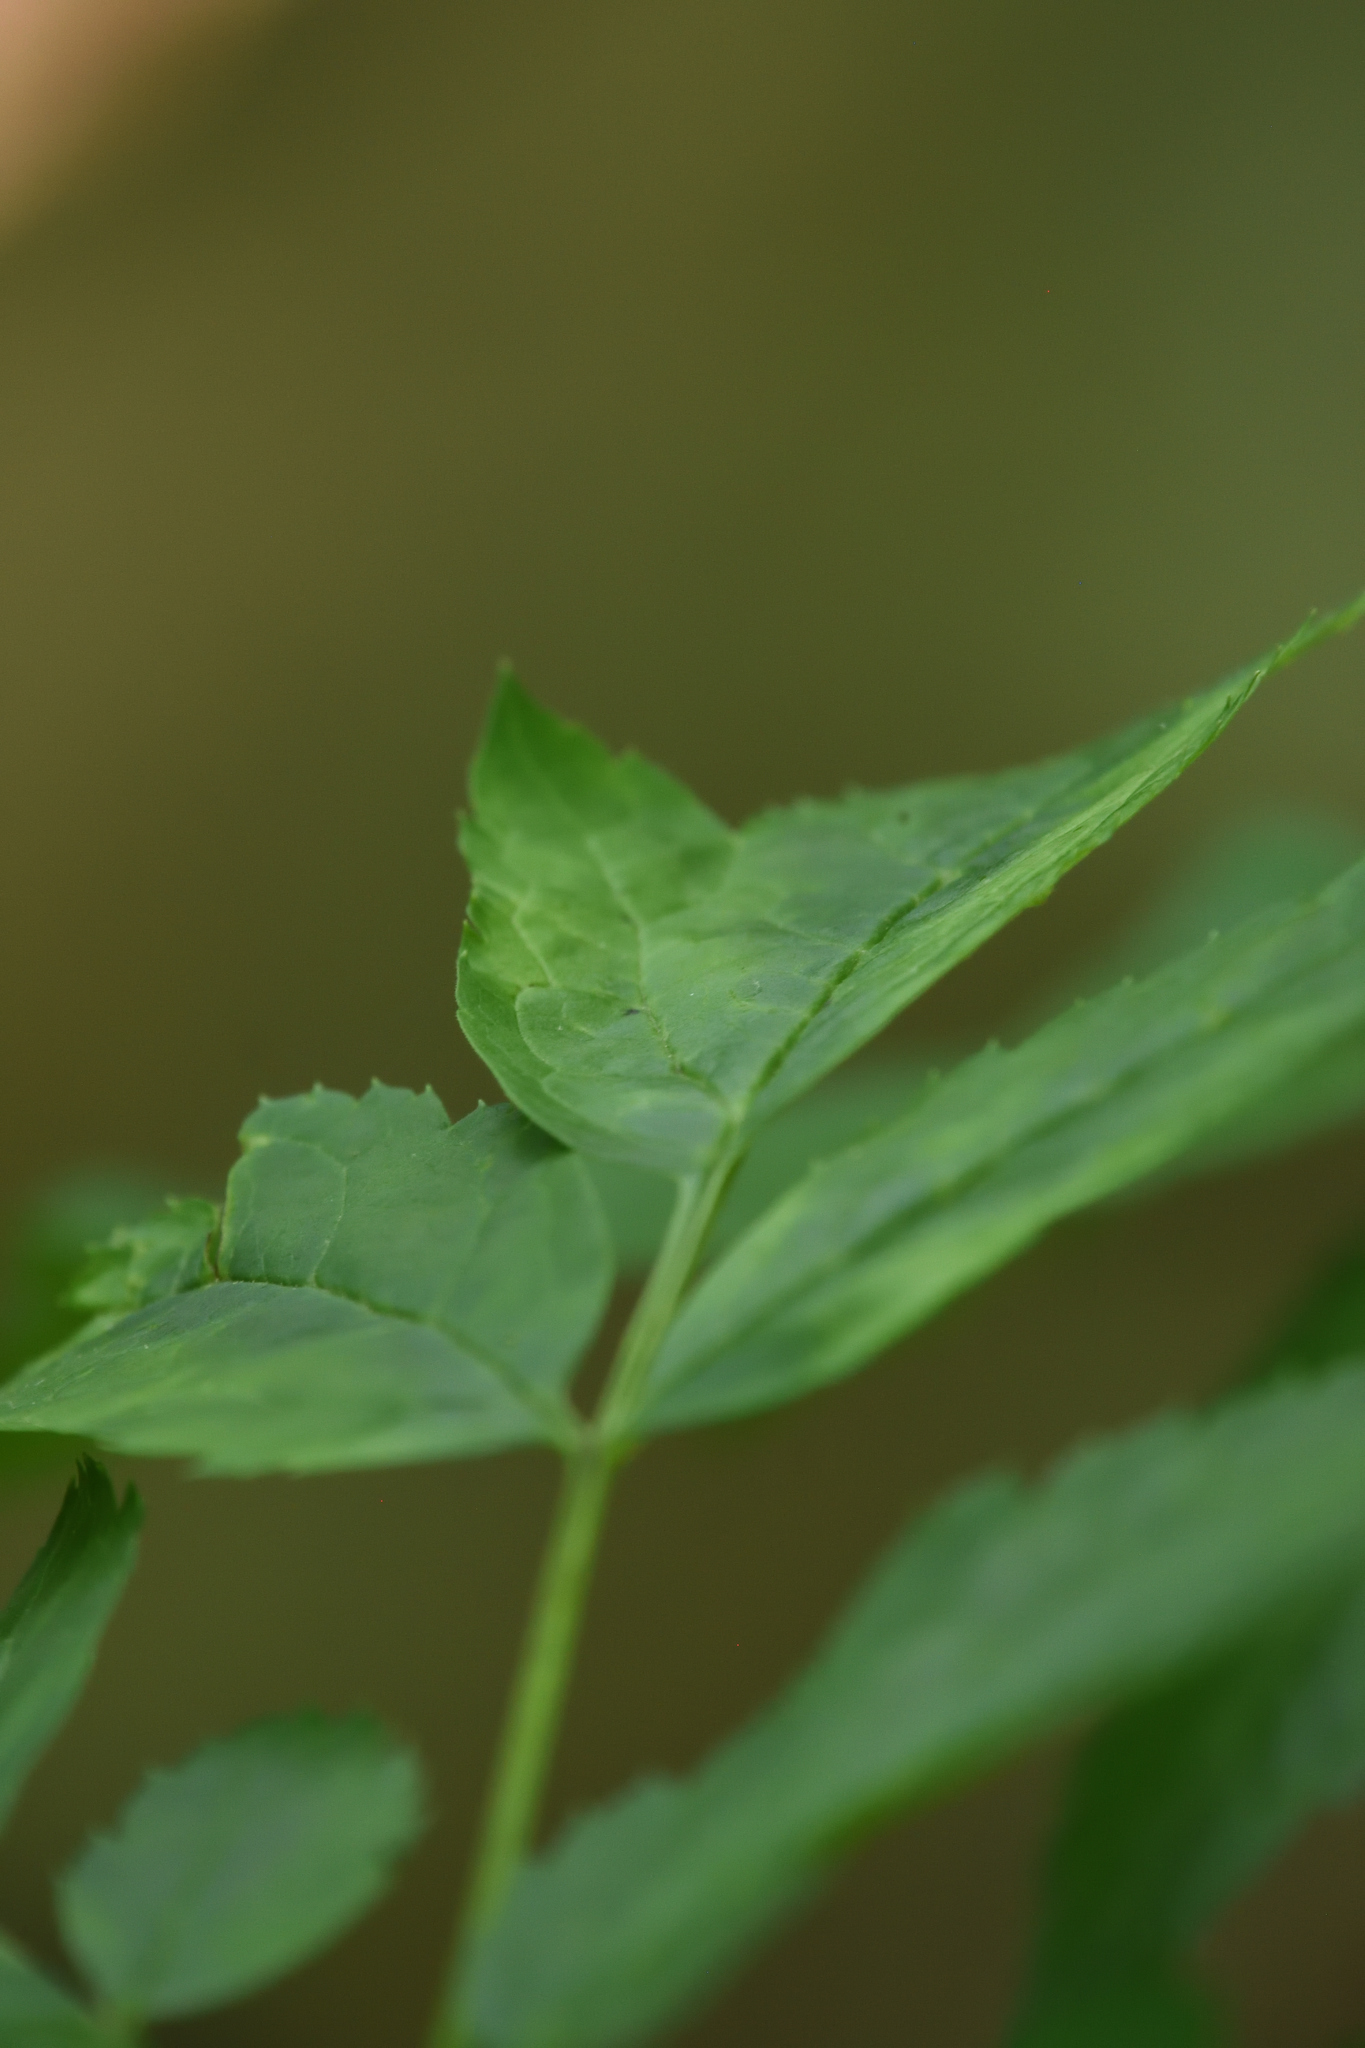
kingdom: Plantae
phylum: Tracheophyta
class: Magnoliopsida
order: Ranunculales
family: Ranunculaceae
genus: Actaea
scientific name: Actaea racemosa
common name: Black cohosh
